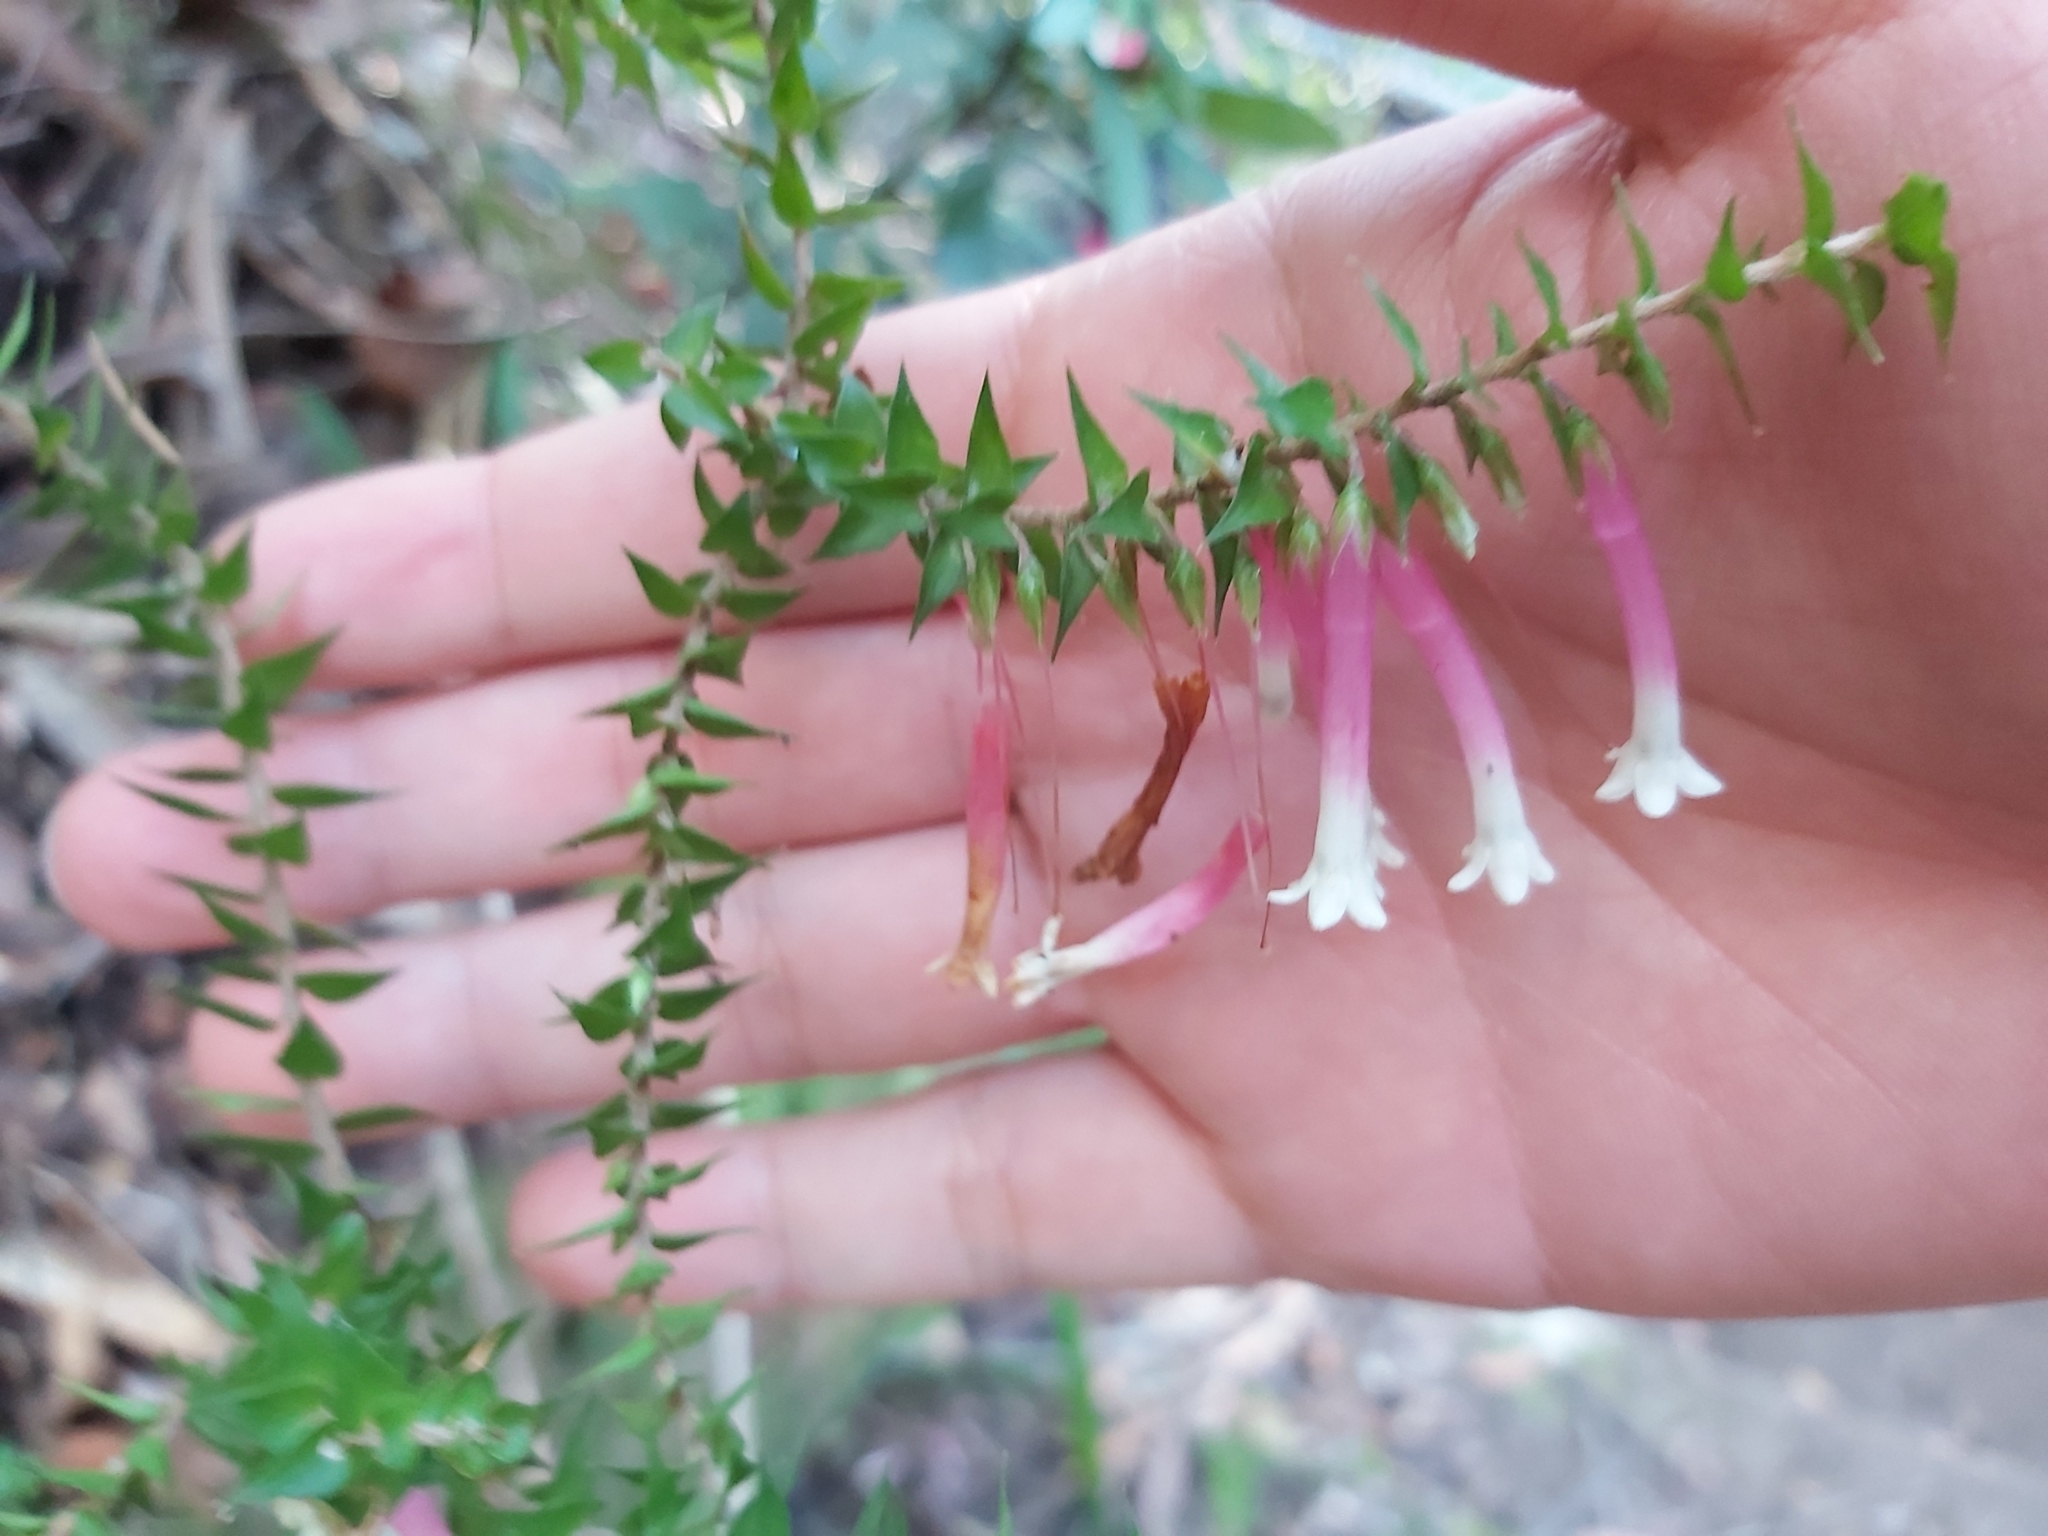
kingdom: Plantae
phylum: Tracheophyta
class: Magnoliopsida
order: Ericales
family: Ericaceae
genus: Epacris
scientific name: Epacris longiflora
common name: Fuchsia-heath
